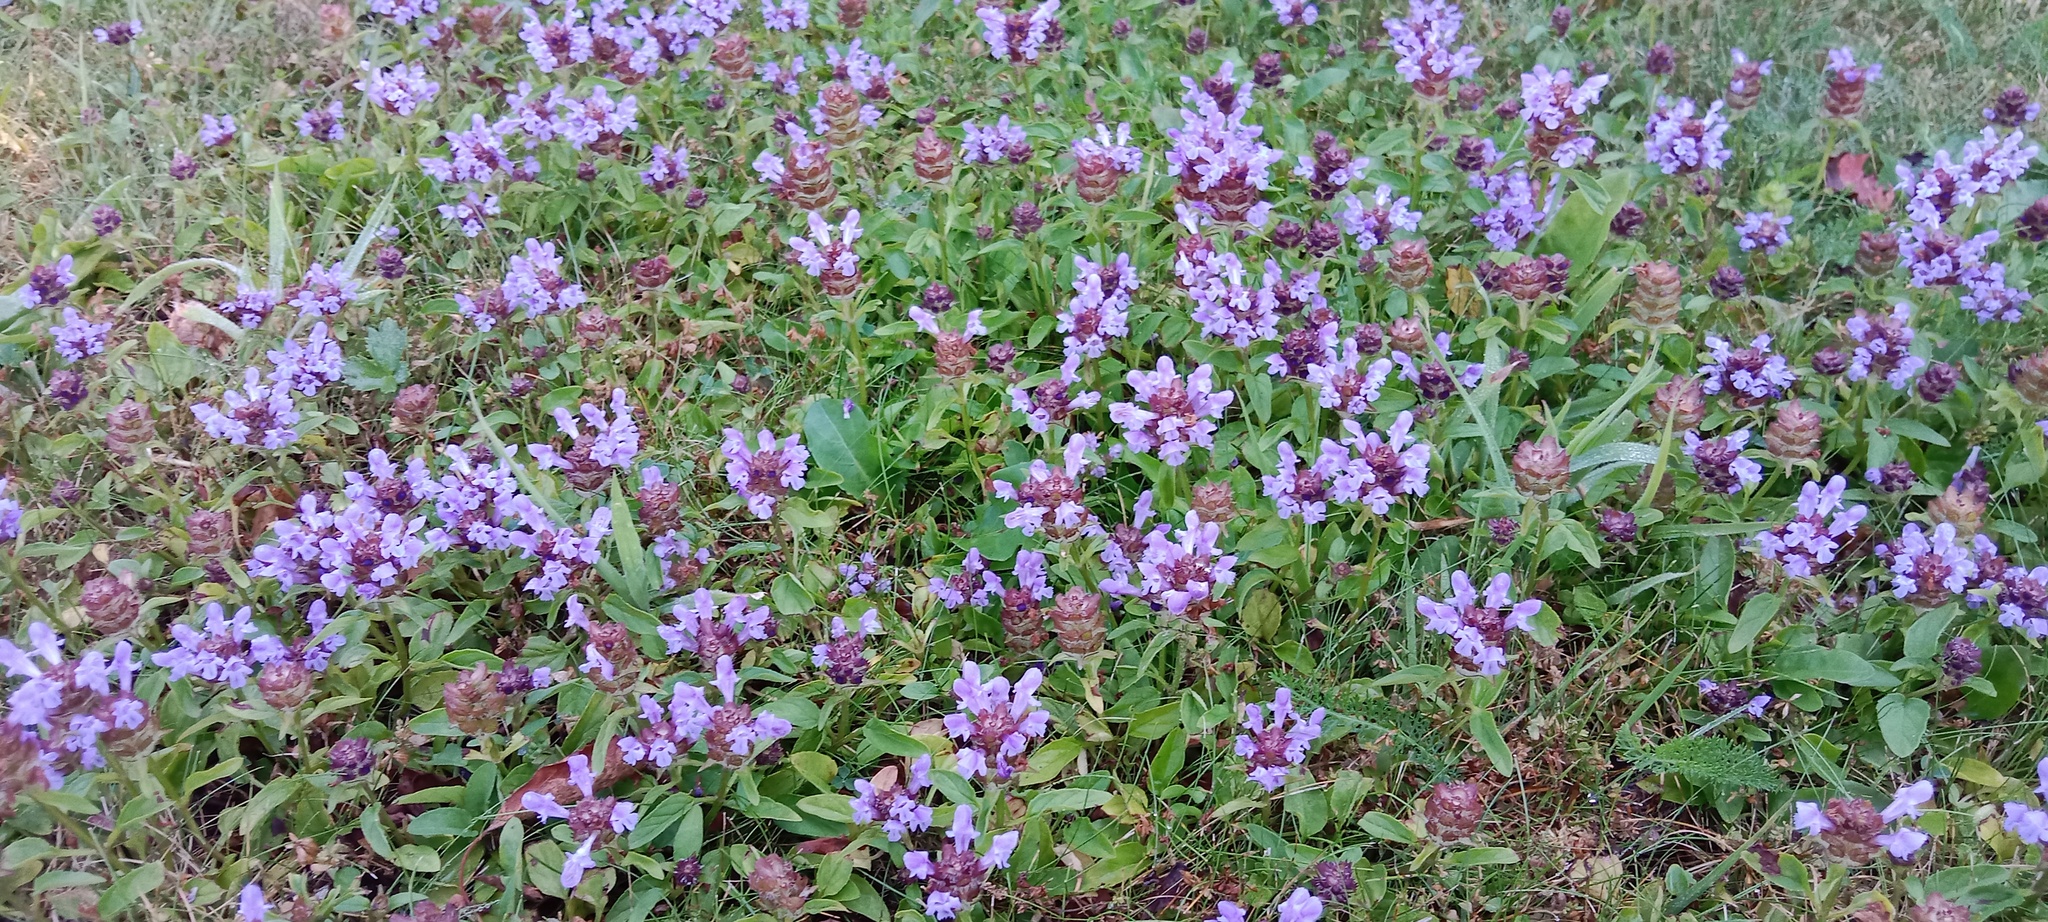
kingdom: Plantae
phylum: Tracheophyta
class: Magnoliopsida
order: Lamiales
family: Lamiaceae
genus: Prunella
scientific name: Prunella grandiflora
